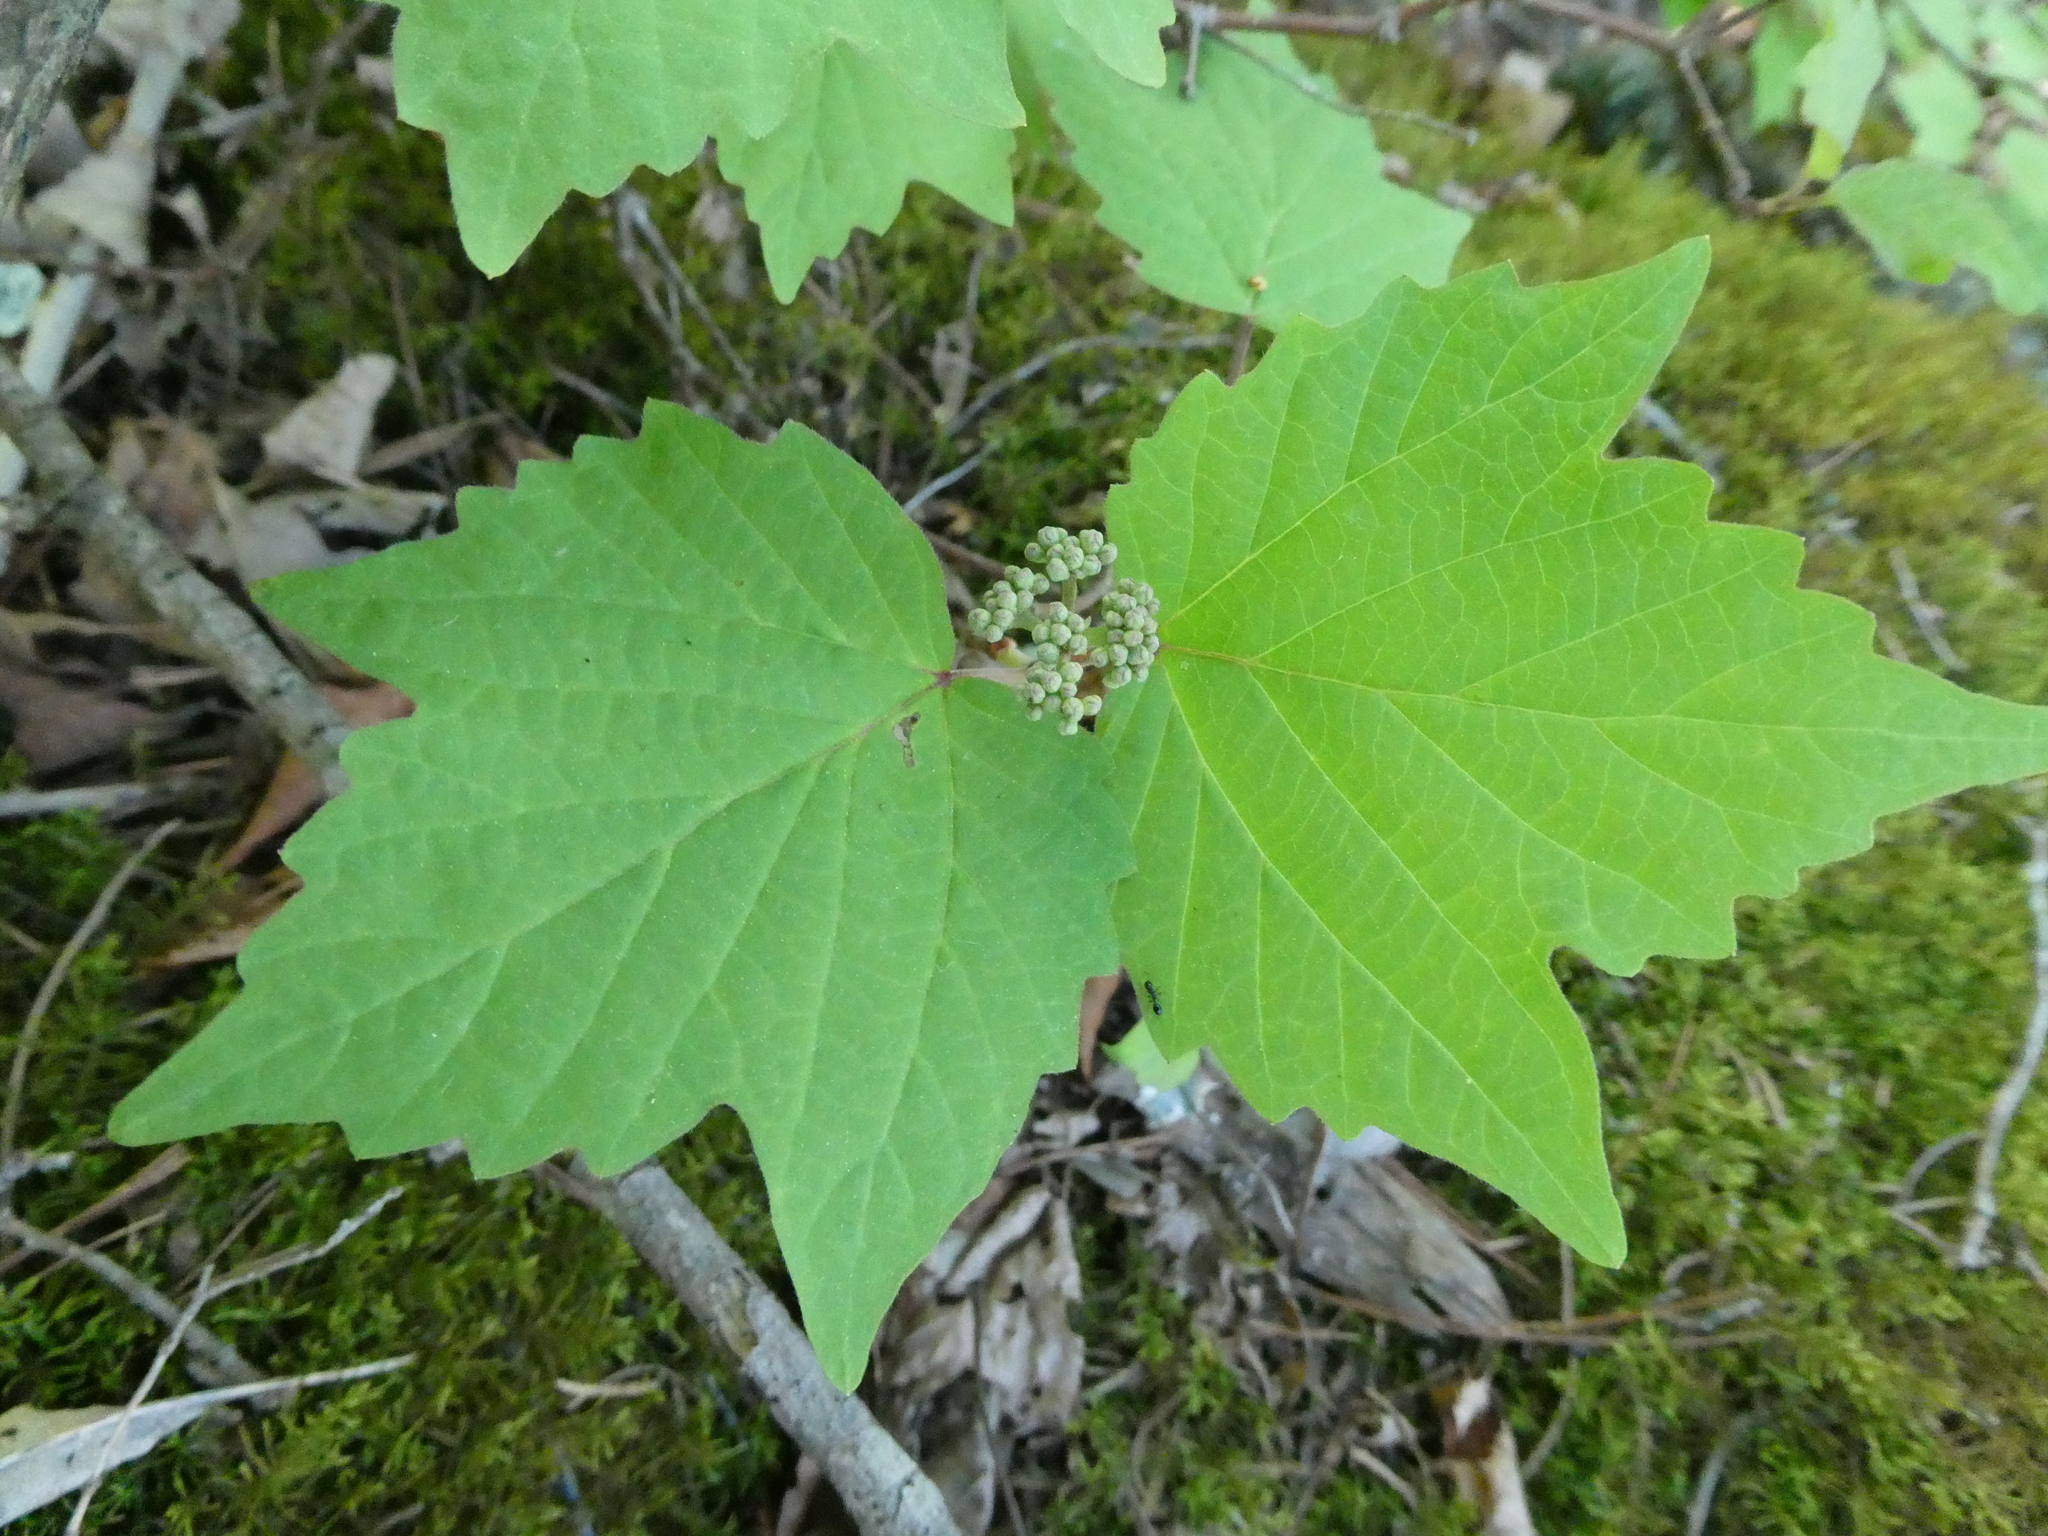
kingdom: Plantae
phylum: Tracheophyta
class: Magnoliopsida
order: Dipsacales
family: Viburnaceae
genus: Viburnum
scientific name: Viburnum acerifolium
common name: Dockmackie
